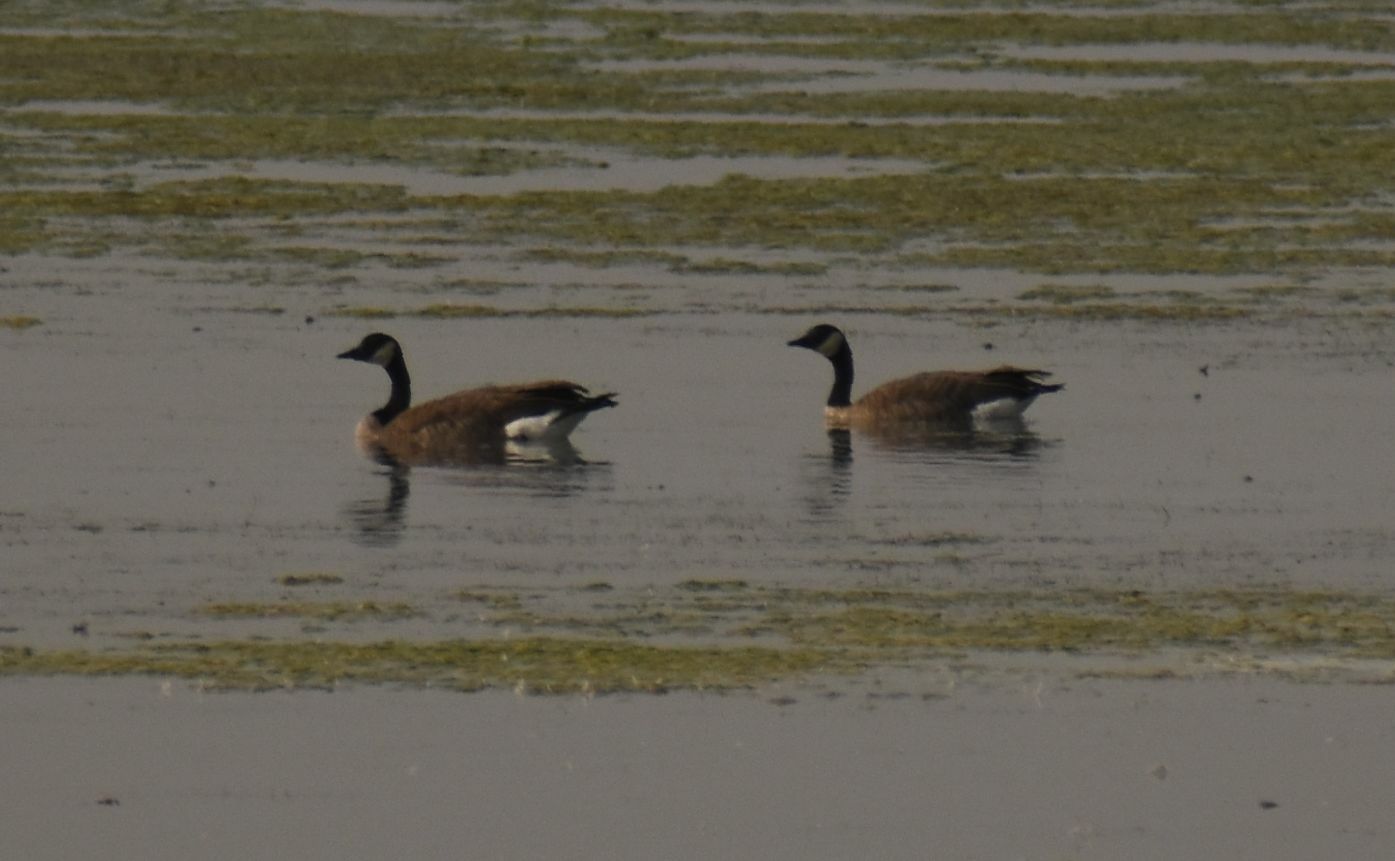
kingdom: Animalia
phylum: Chordata
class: Aves
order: Anseriformes
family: Anatidae
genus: Branta
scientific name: Branta canadensis
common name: Canada goose
